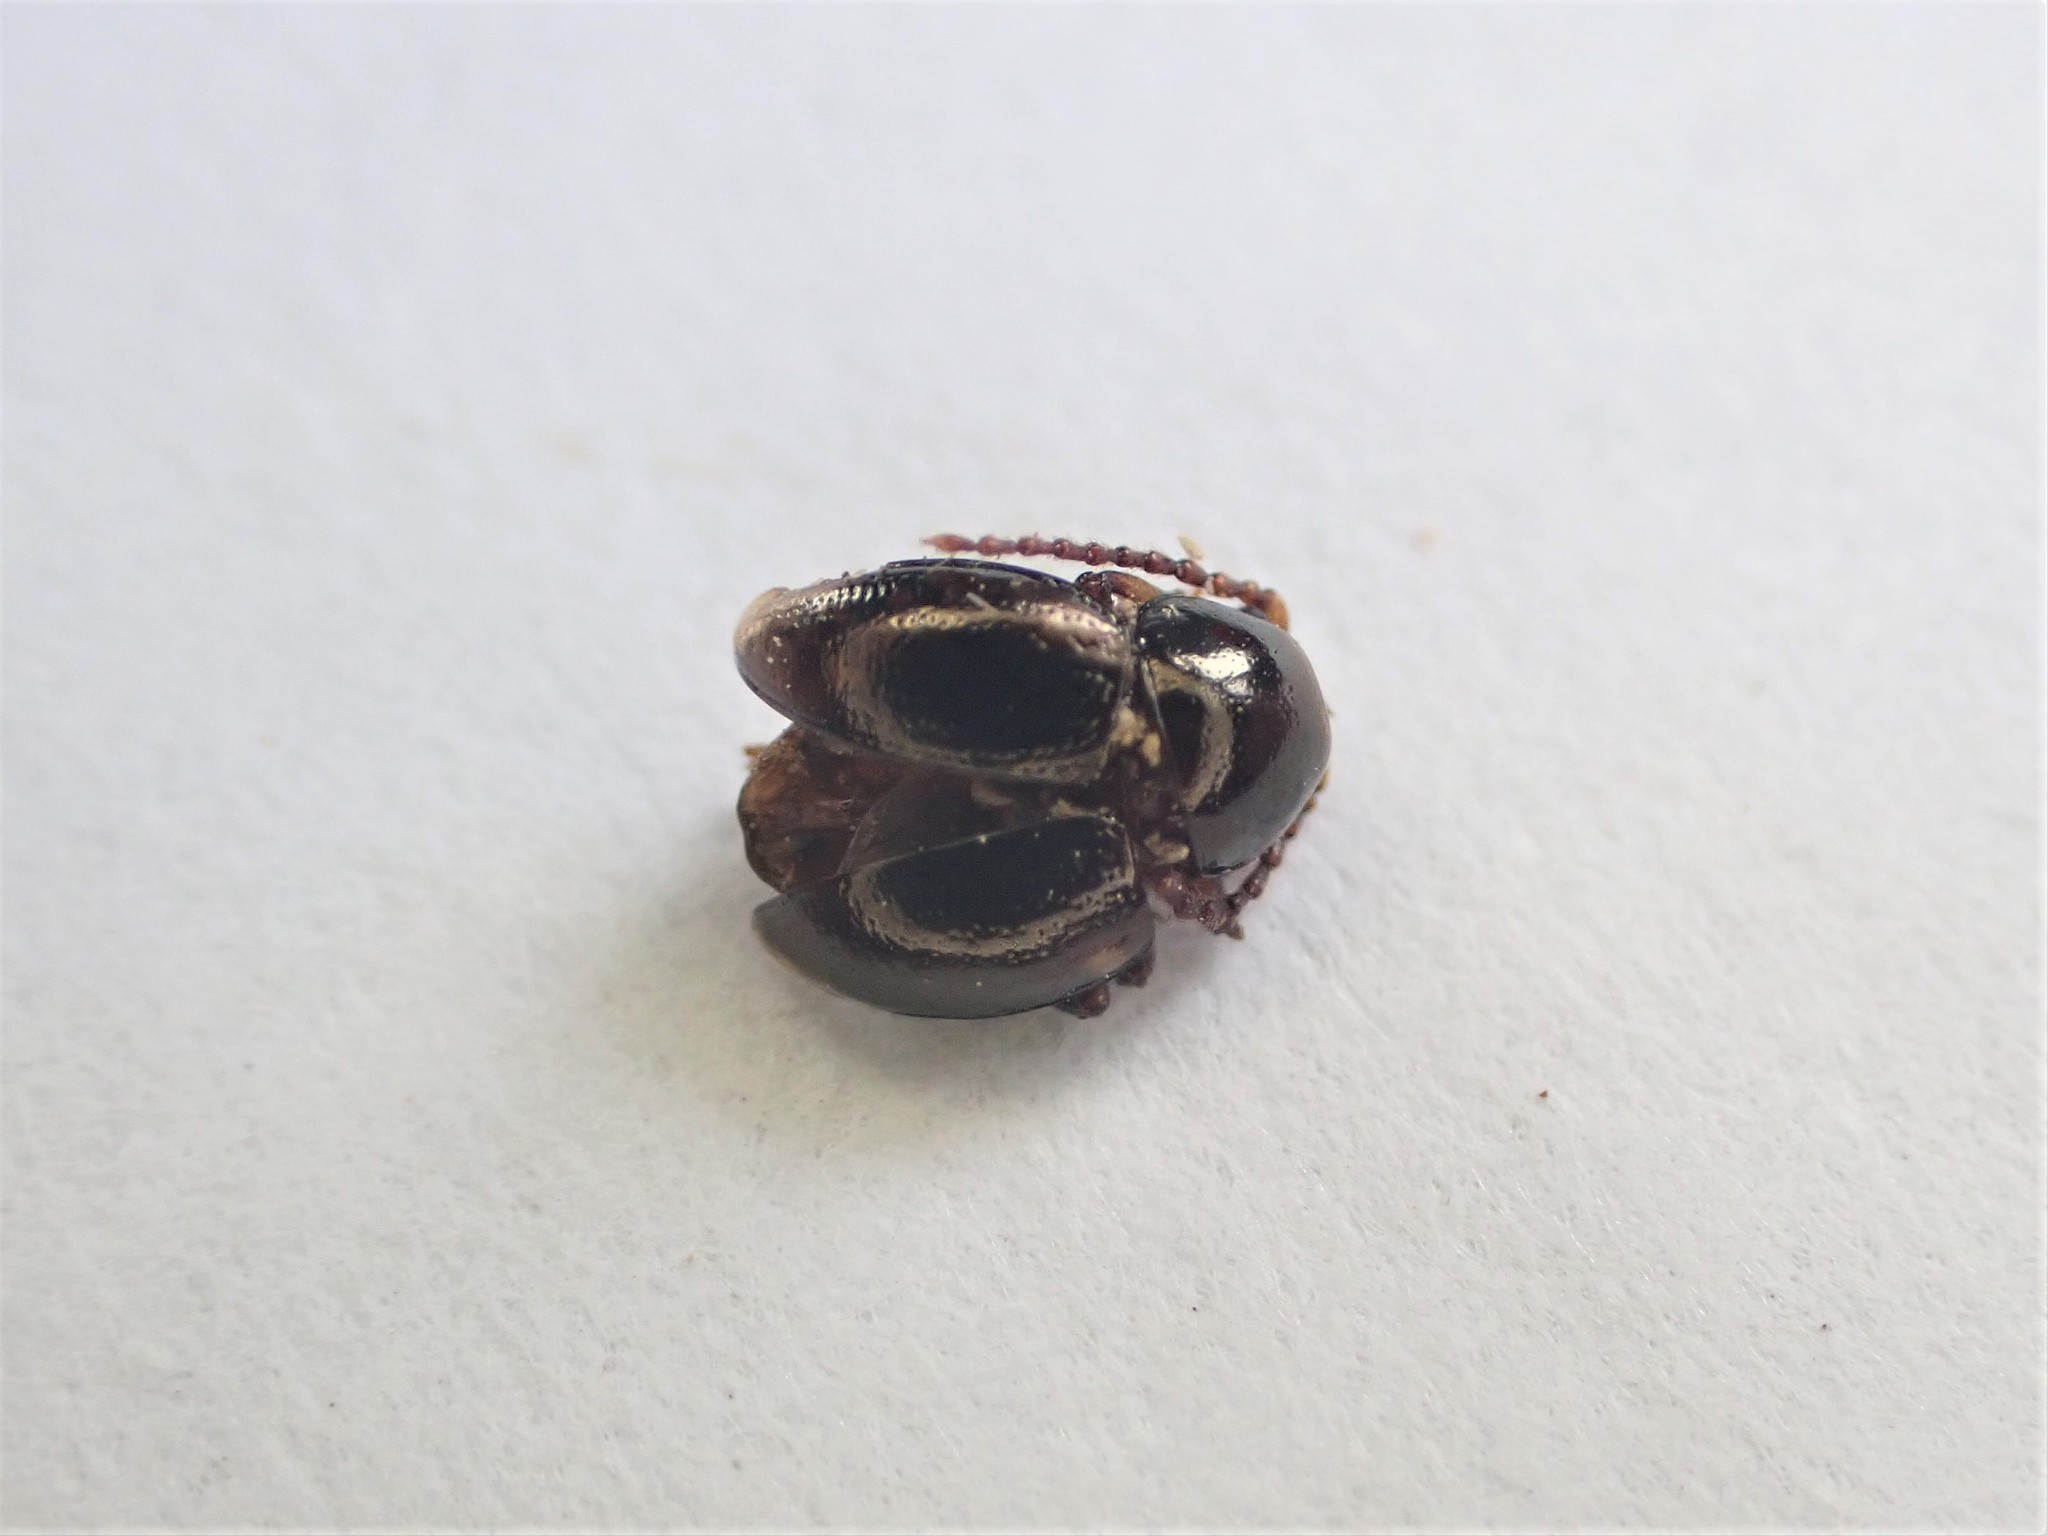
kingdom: Animalia
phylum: Arthropoda
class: Insecta
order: Coleoptera
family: Chrysomelidae
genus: Peniticus
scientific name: Peniticus antiquus
